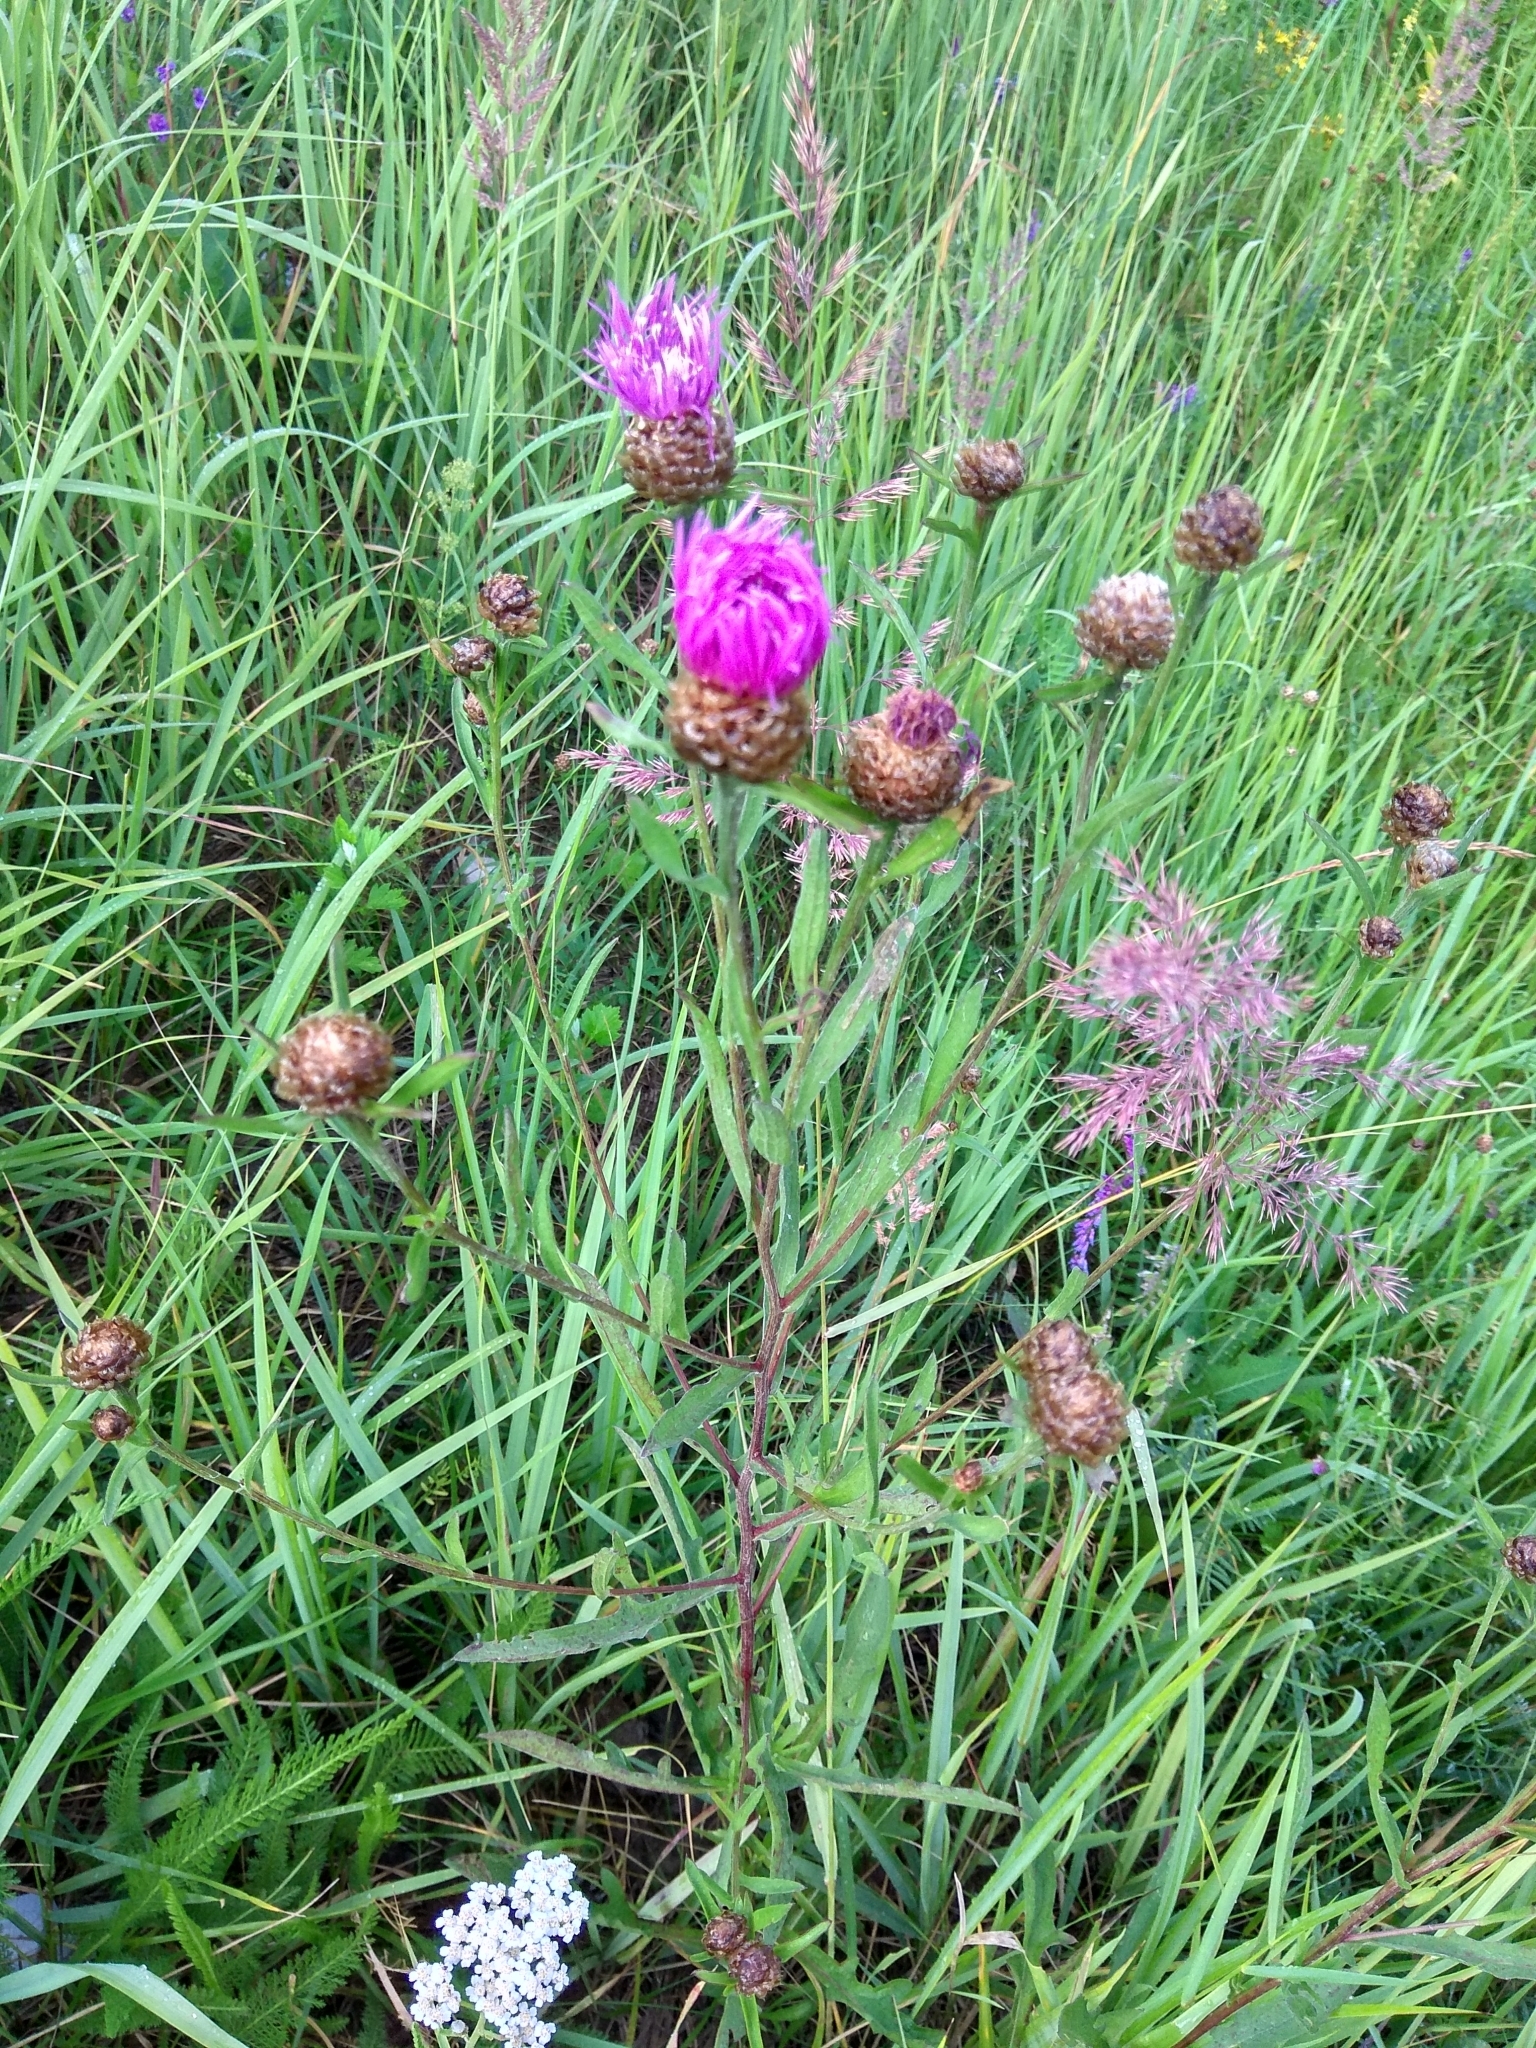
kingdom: Plantae
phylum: Tracheophyta
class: Magnoliopsida
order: Asterales
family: Asteraceae
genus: Centaurea
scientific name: Centaurea jacea
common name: Brown knapweed
